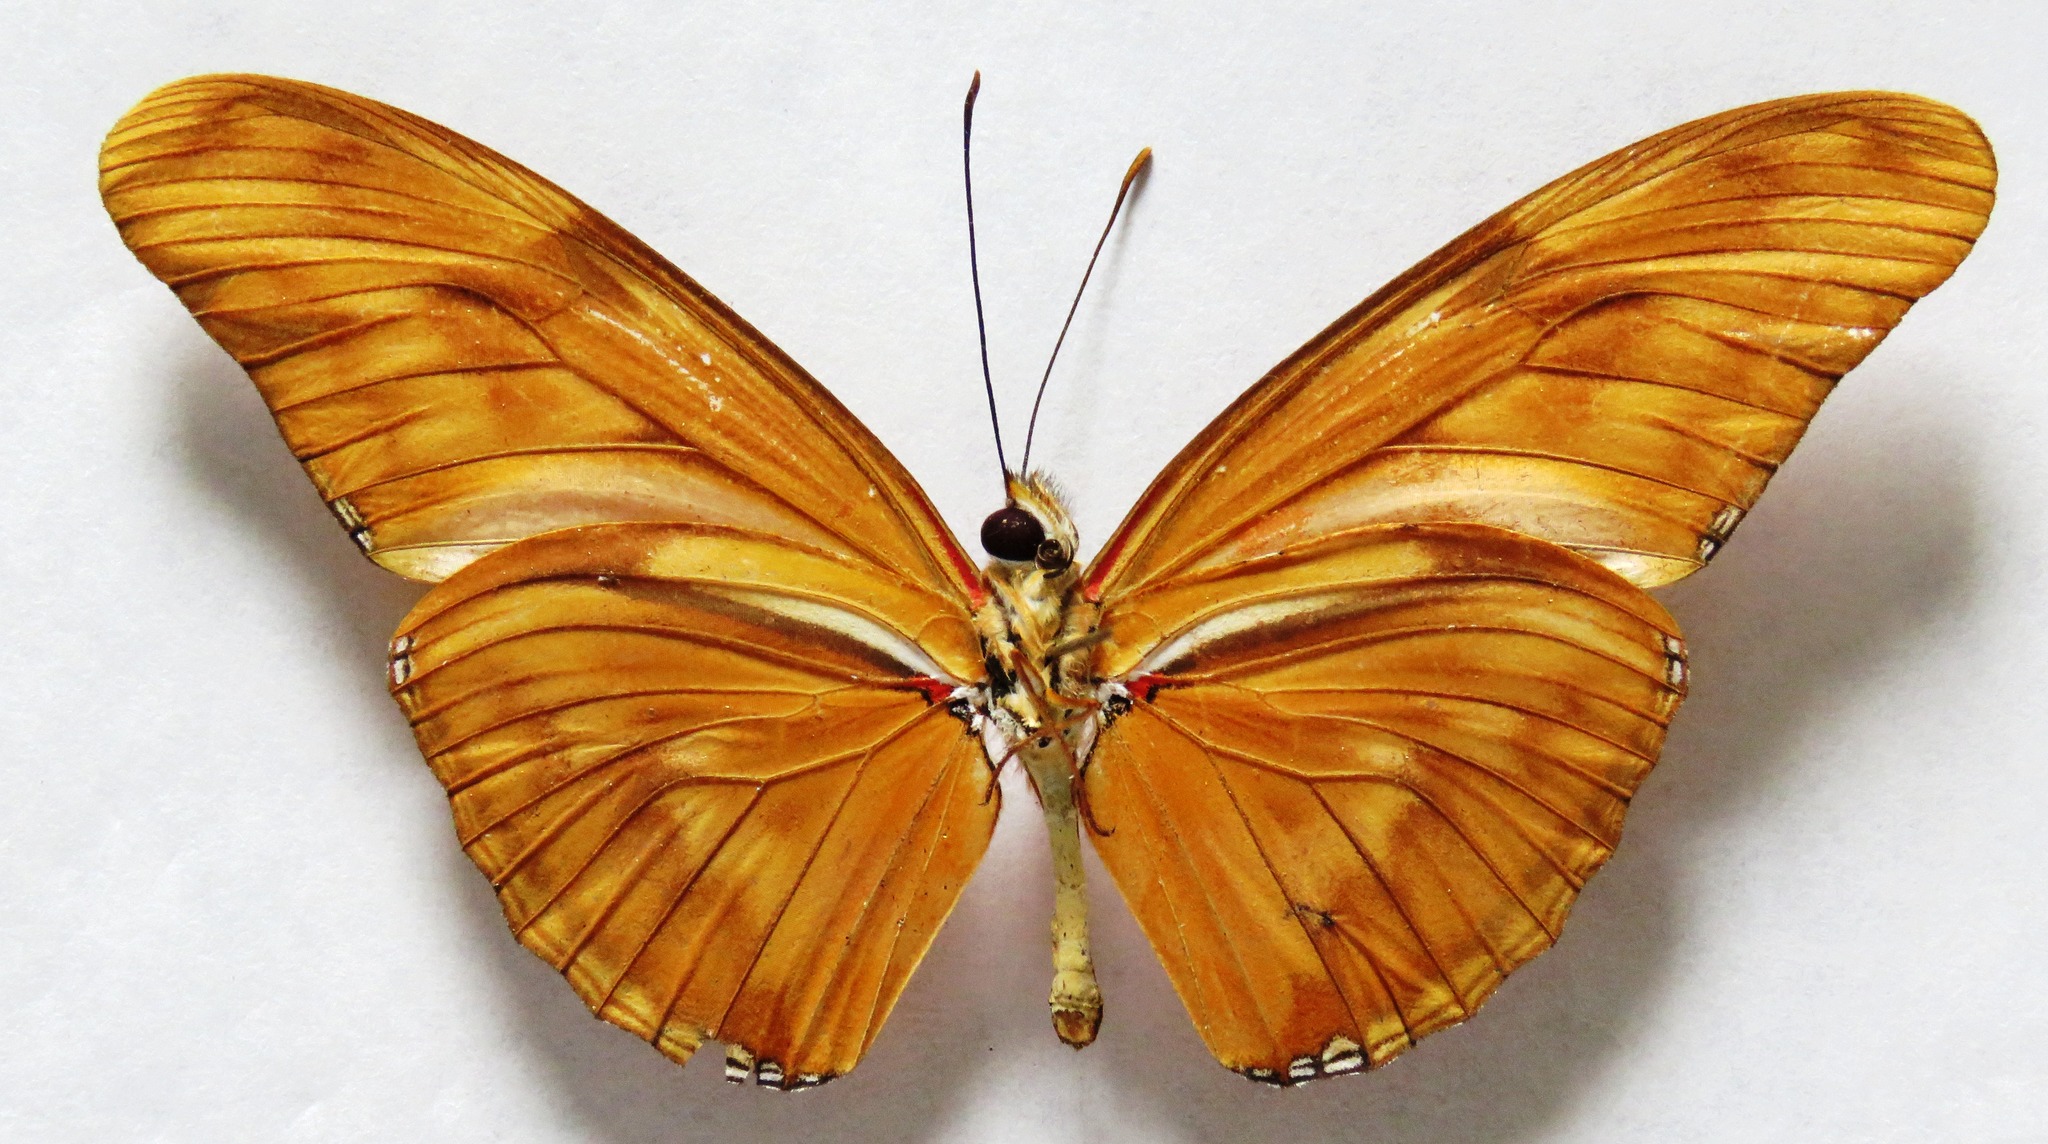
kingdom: Animalia
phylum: Arthropoda
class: Insecta
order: Lepidoptera
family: Nymphalidae
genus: Dryas
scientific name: Dryas iulia
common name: Flambeau
